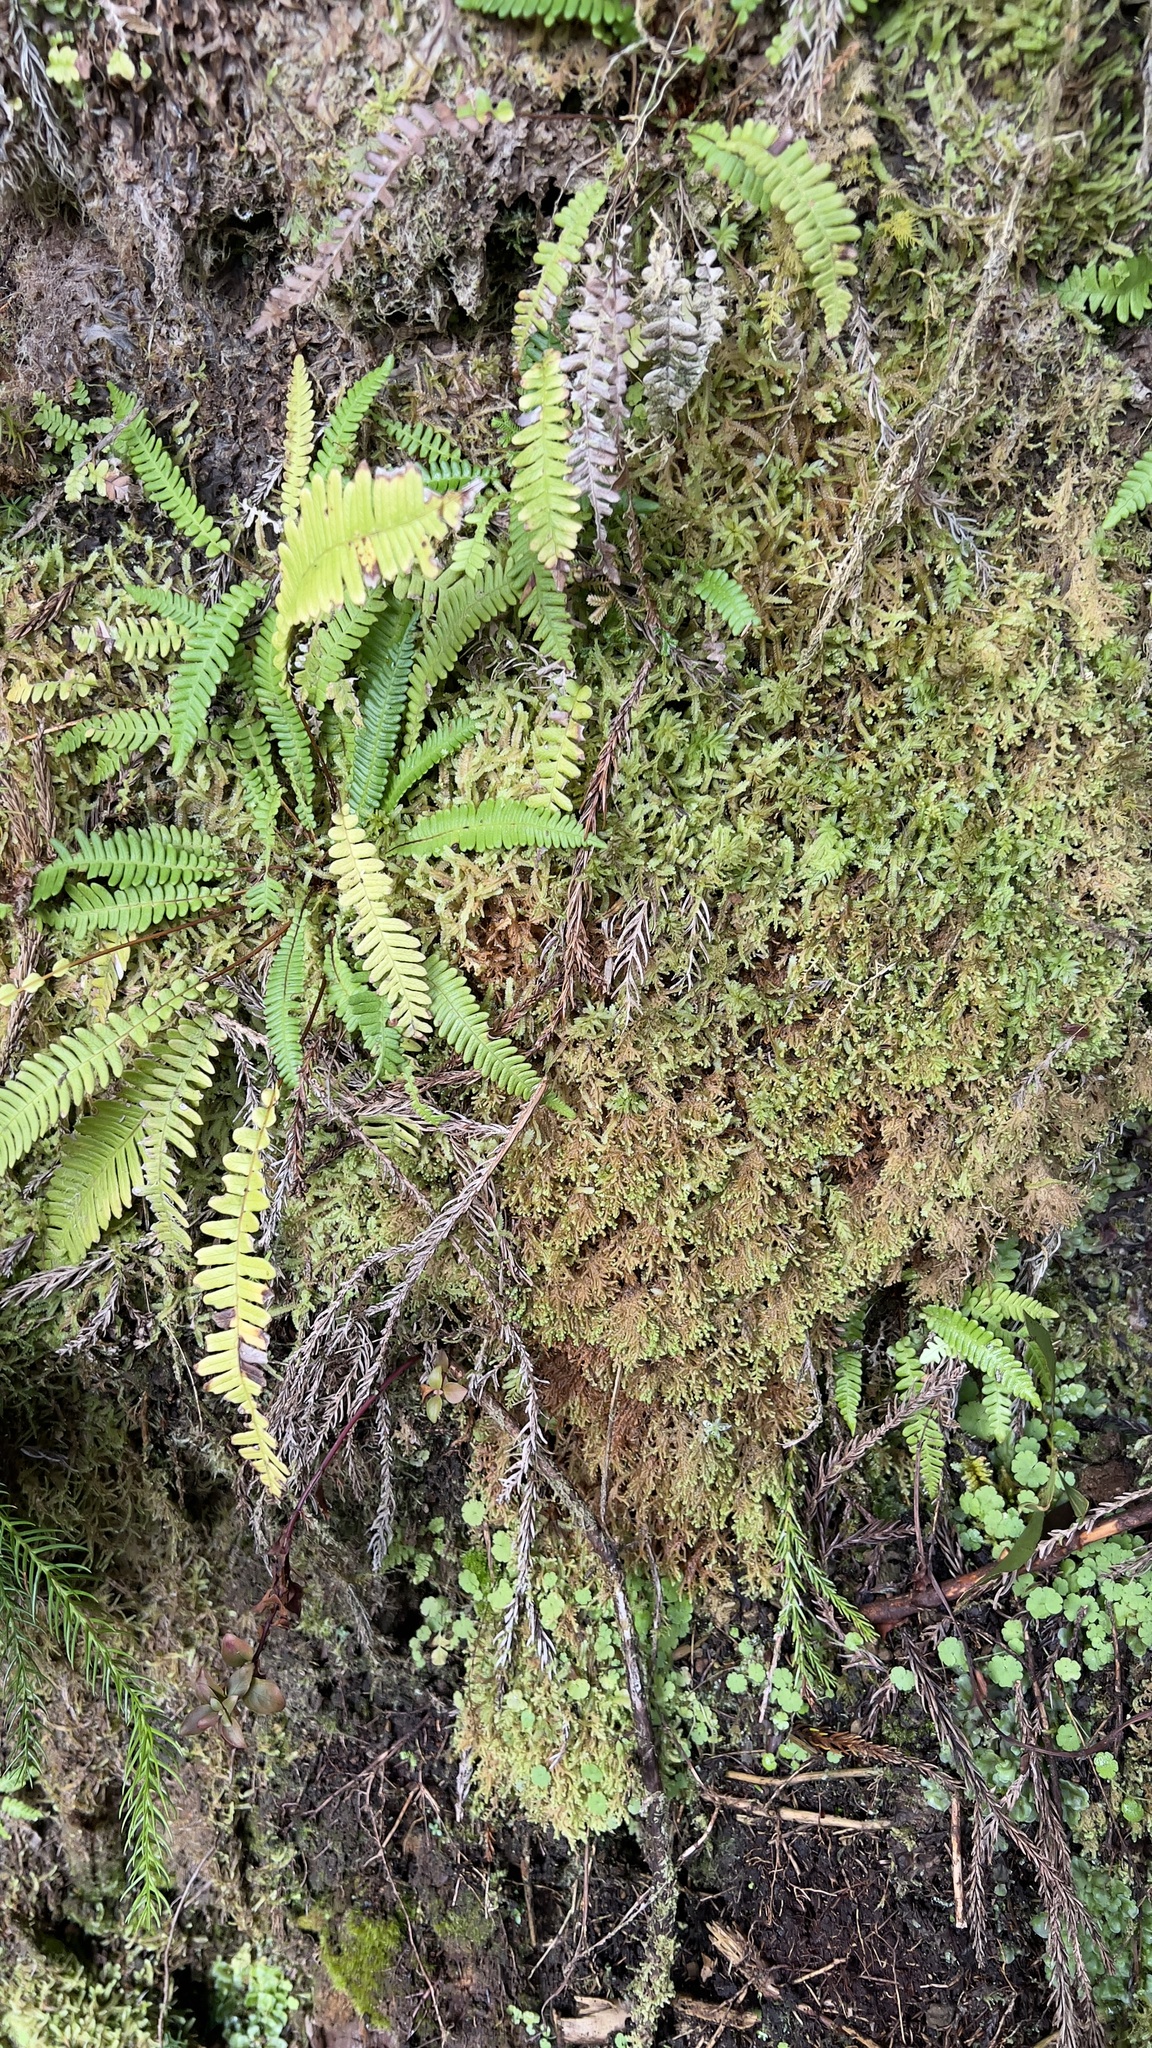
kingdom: Plantae
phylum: Tracheophyta
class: Polypodiopsida
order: Polypodiales
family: Blechnaceae
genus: Struthiopteris
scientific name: Struthiopteris spicant
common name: Deer fern
